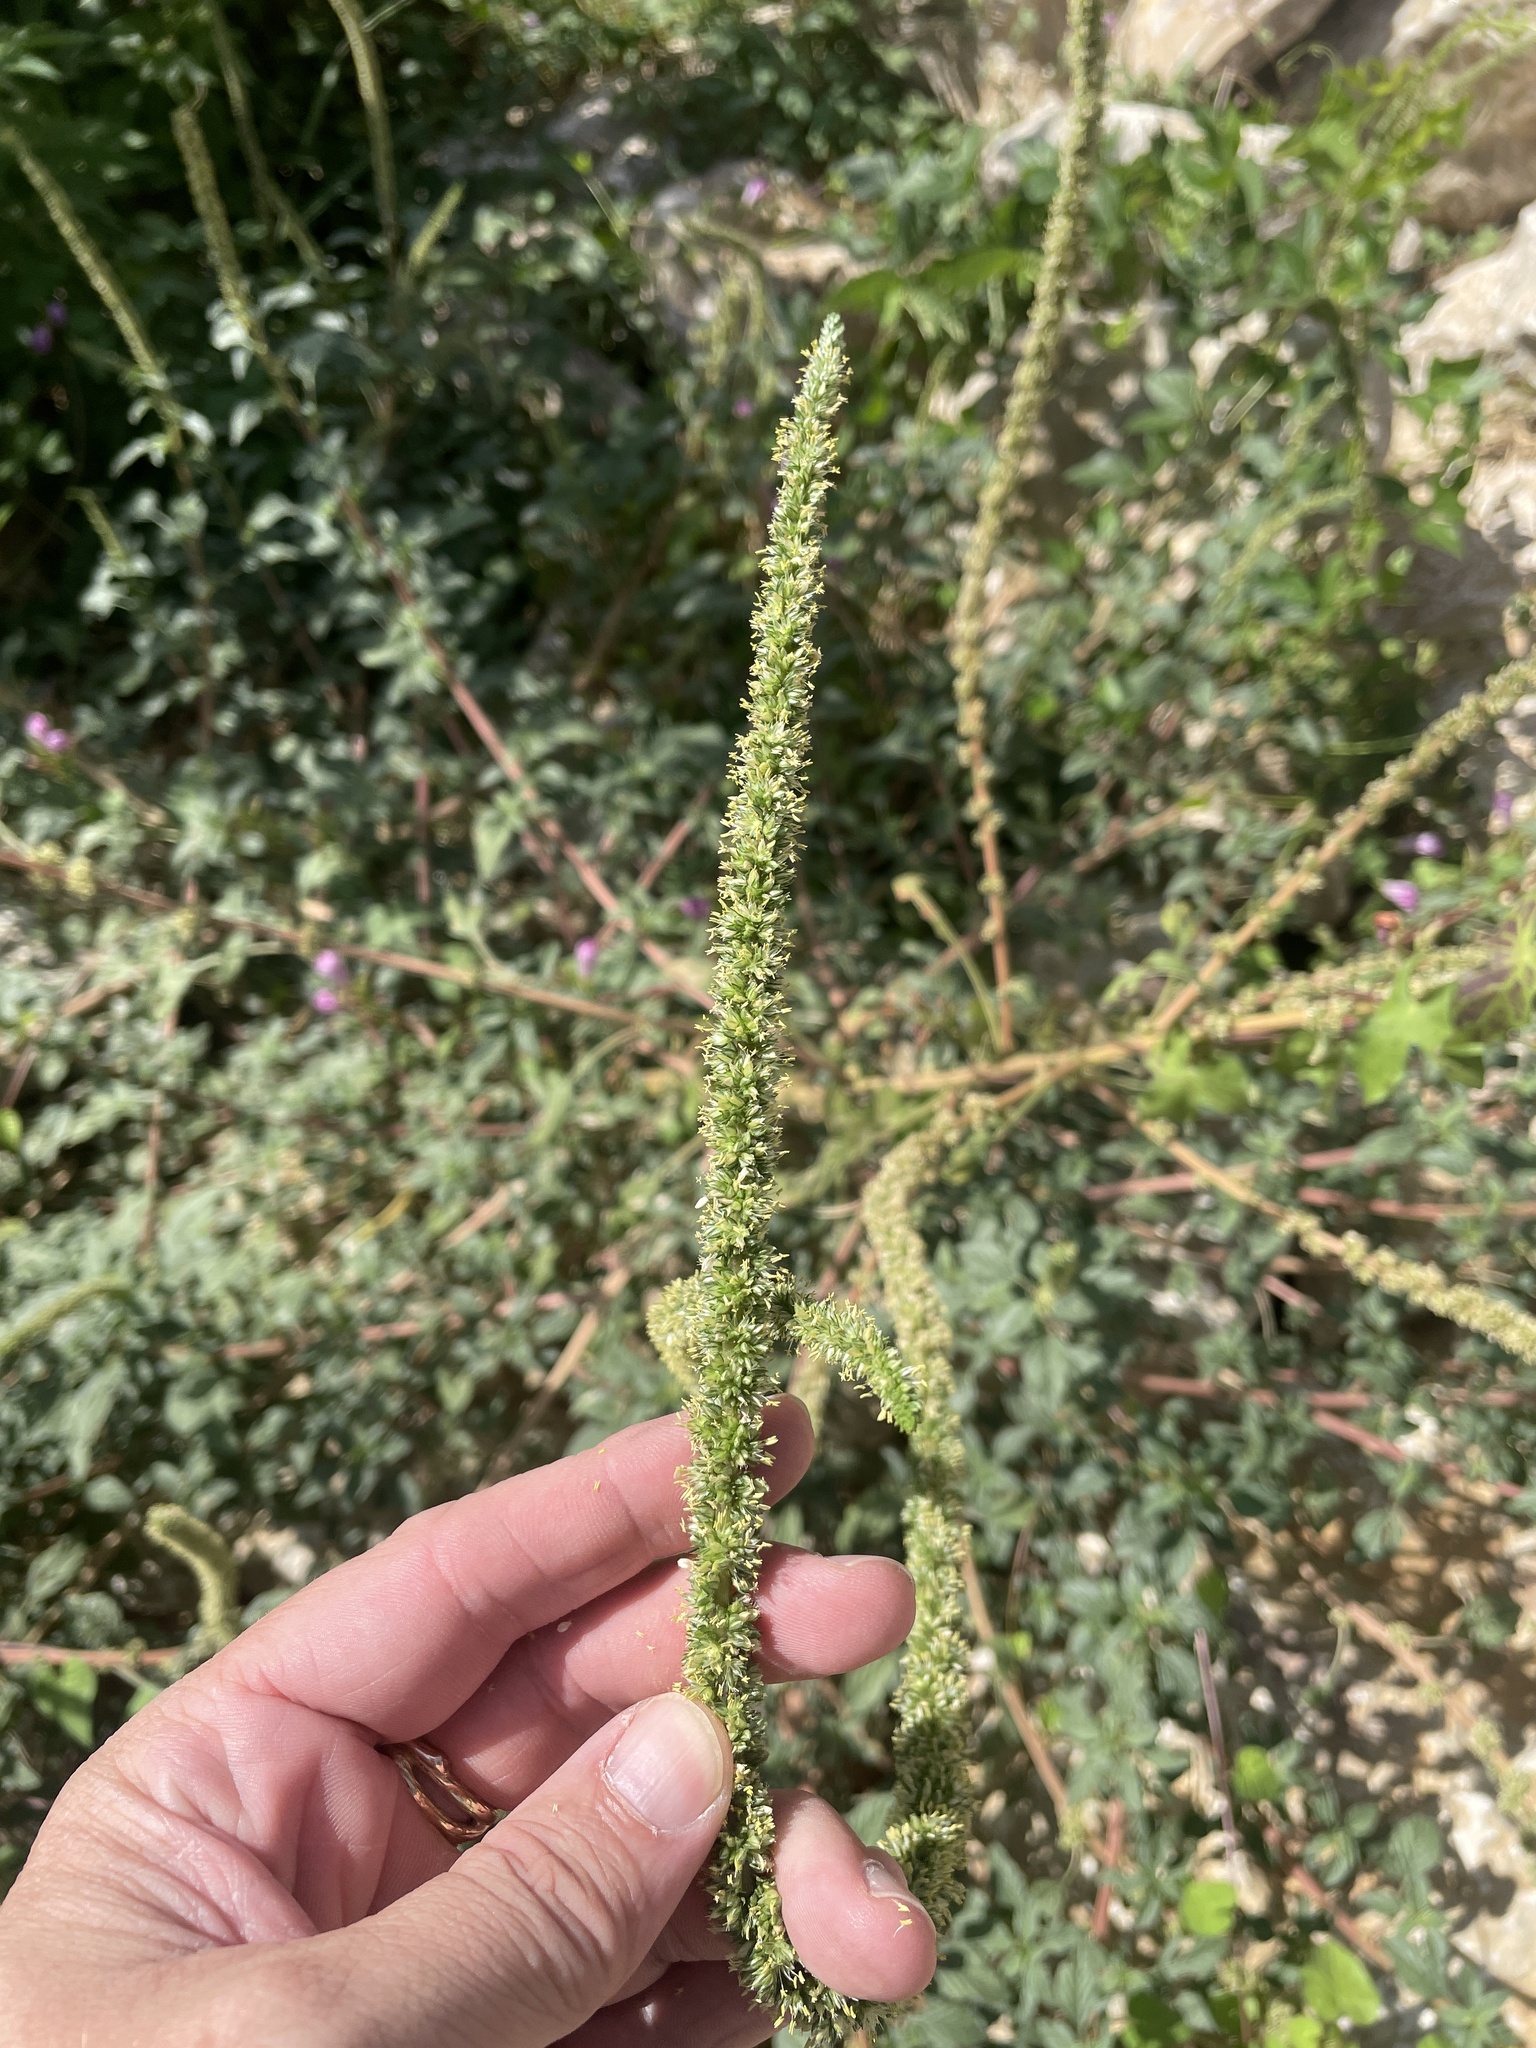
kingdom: Plantae
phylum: Tracheophyta
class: Magnoliopsida
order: Caryophyllales
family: Amaranthaceae
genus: Amaranthus
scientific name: Amaranthus palmeri
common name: Dioecious amaranth
